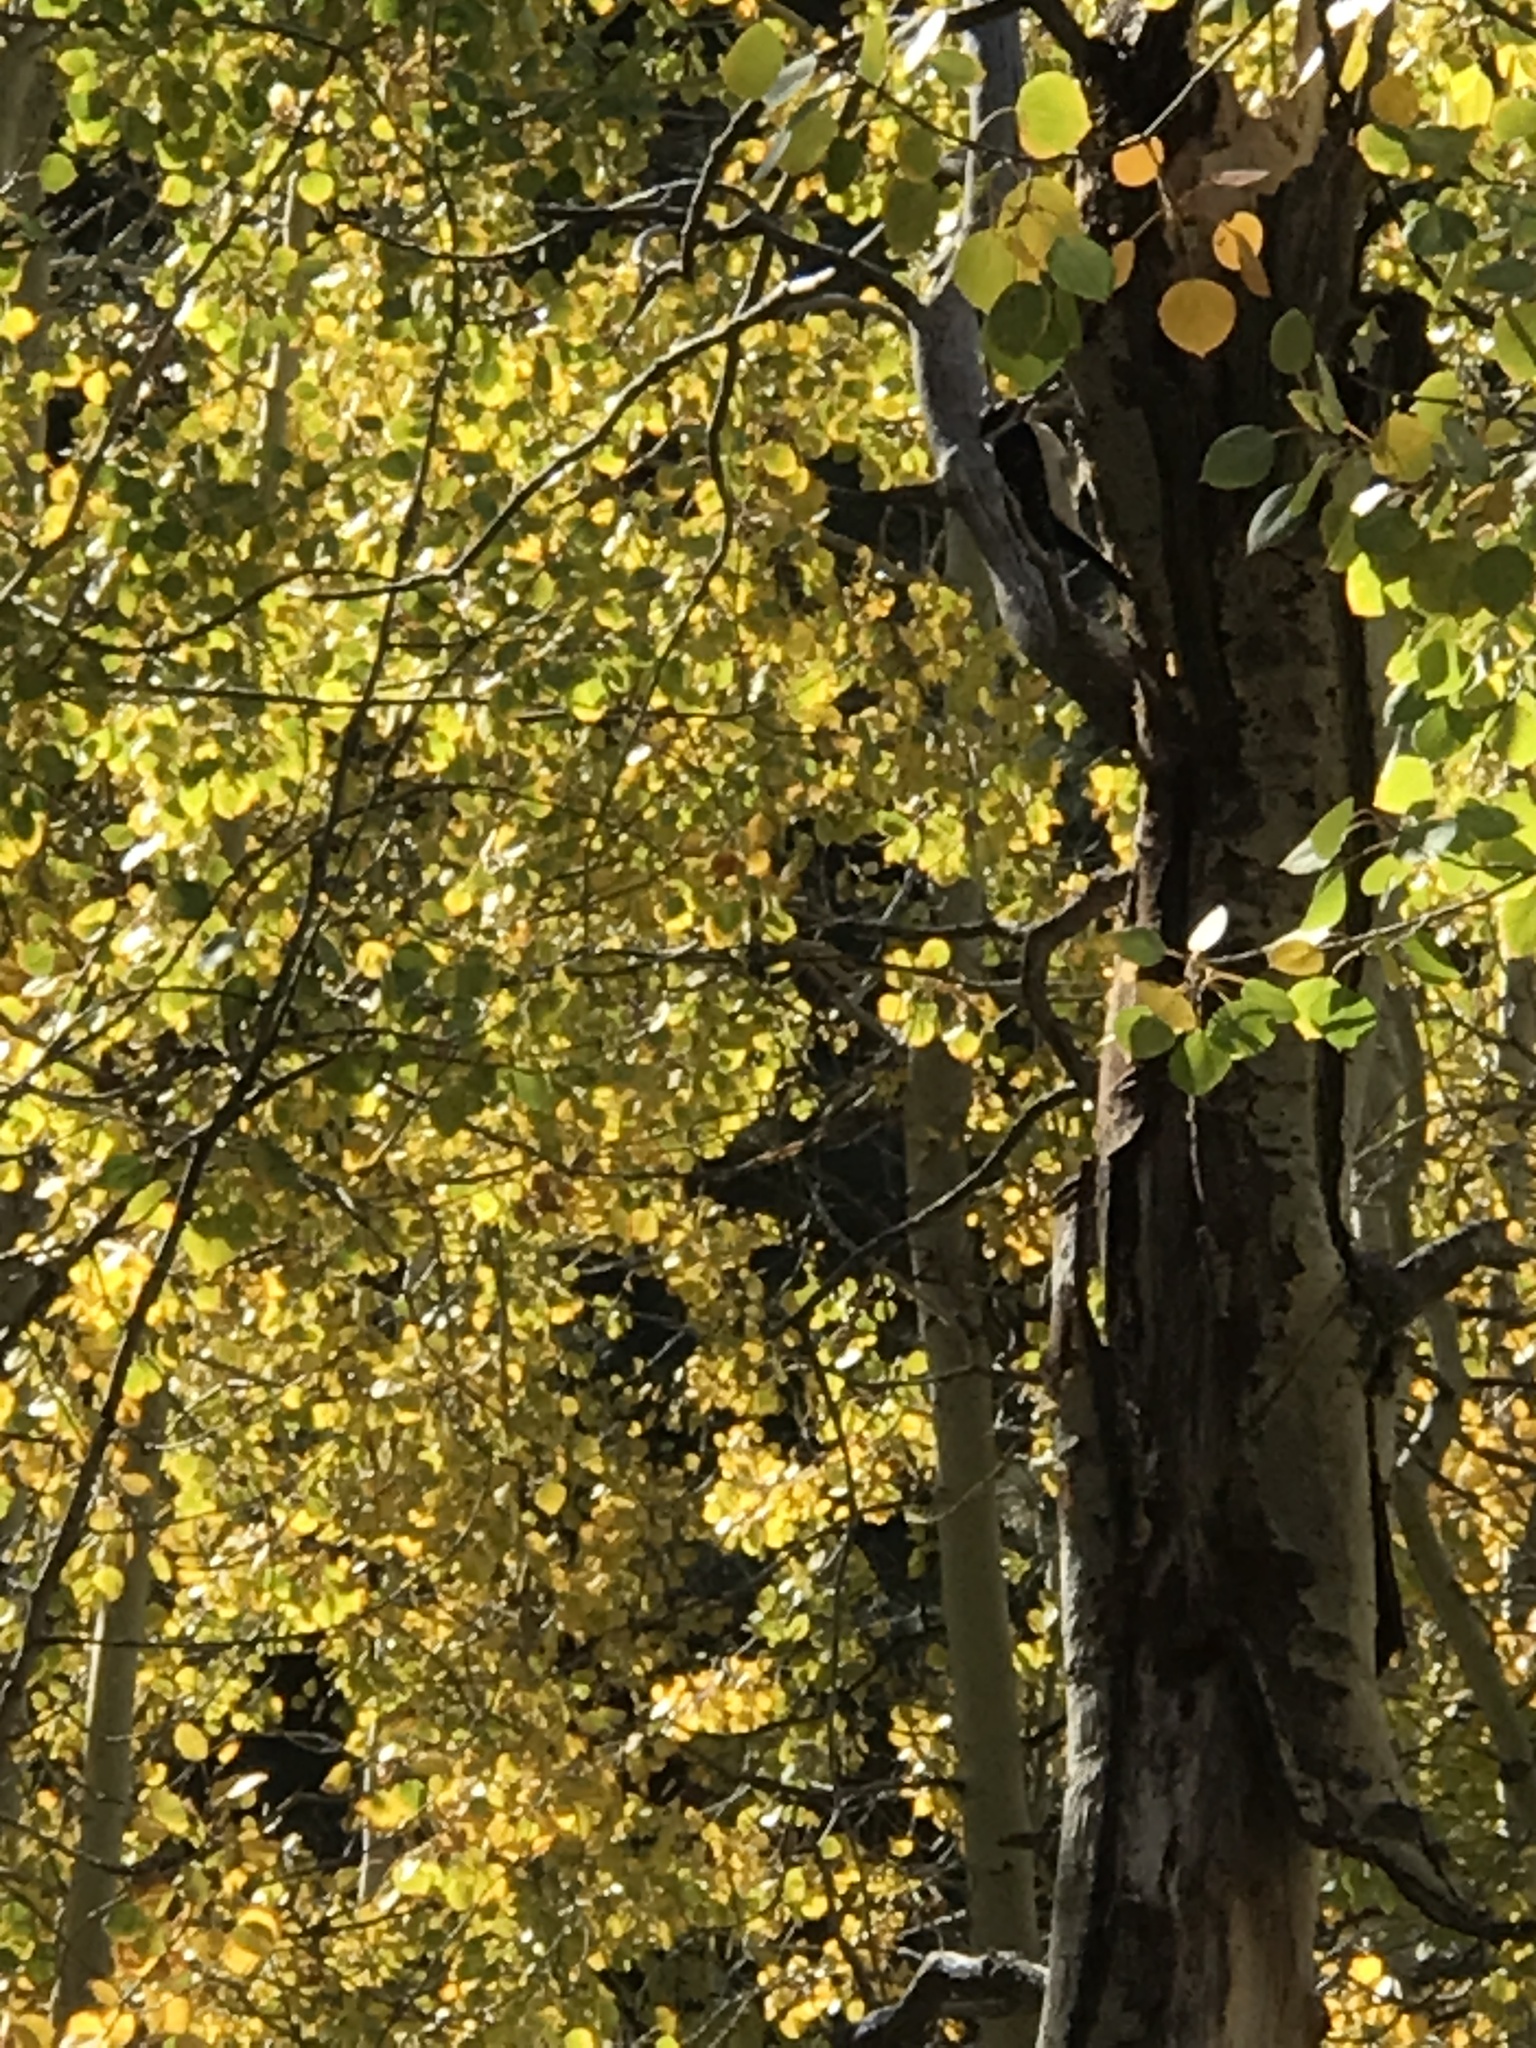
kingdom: Animalia
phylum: Chordata
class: Aves
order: Piciformes
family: Picidae
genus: Leuconotopicus
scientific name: Leuconotopicus villosus
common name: Hairy woodpecker
